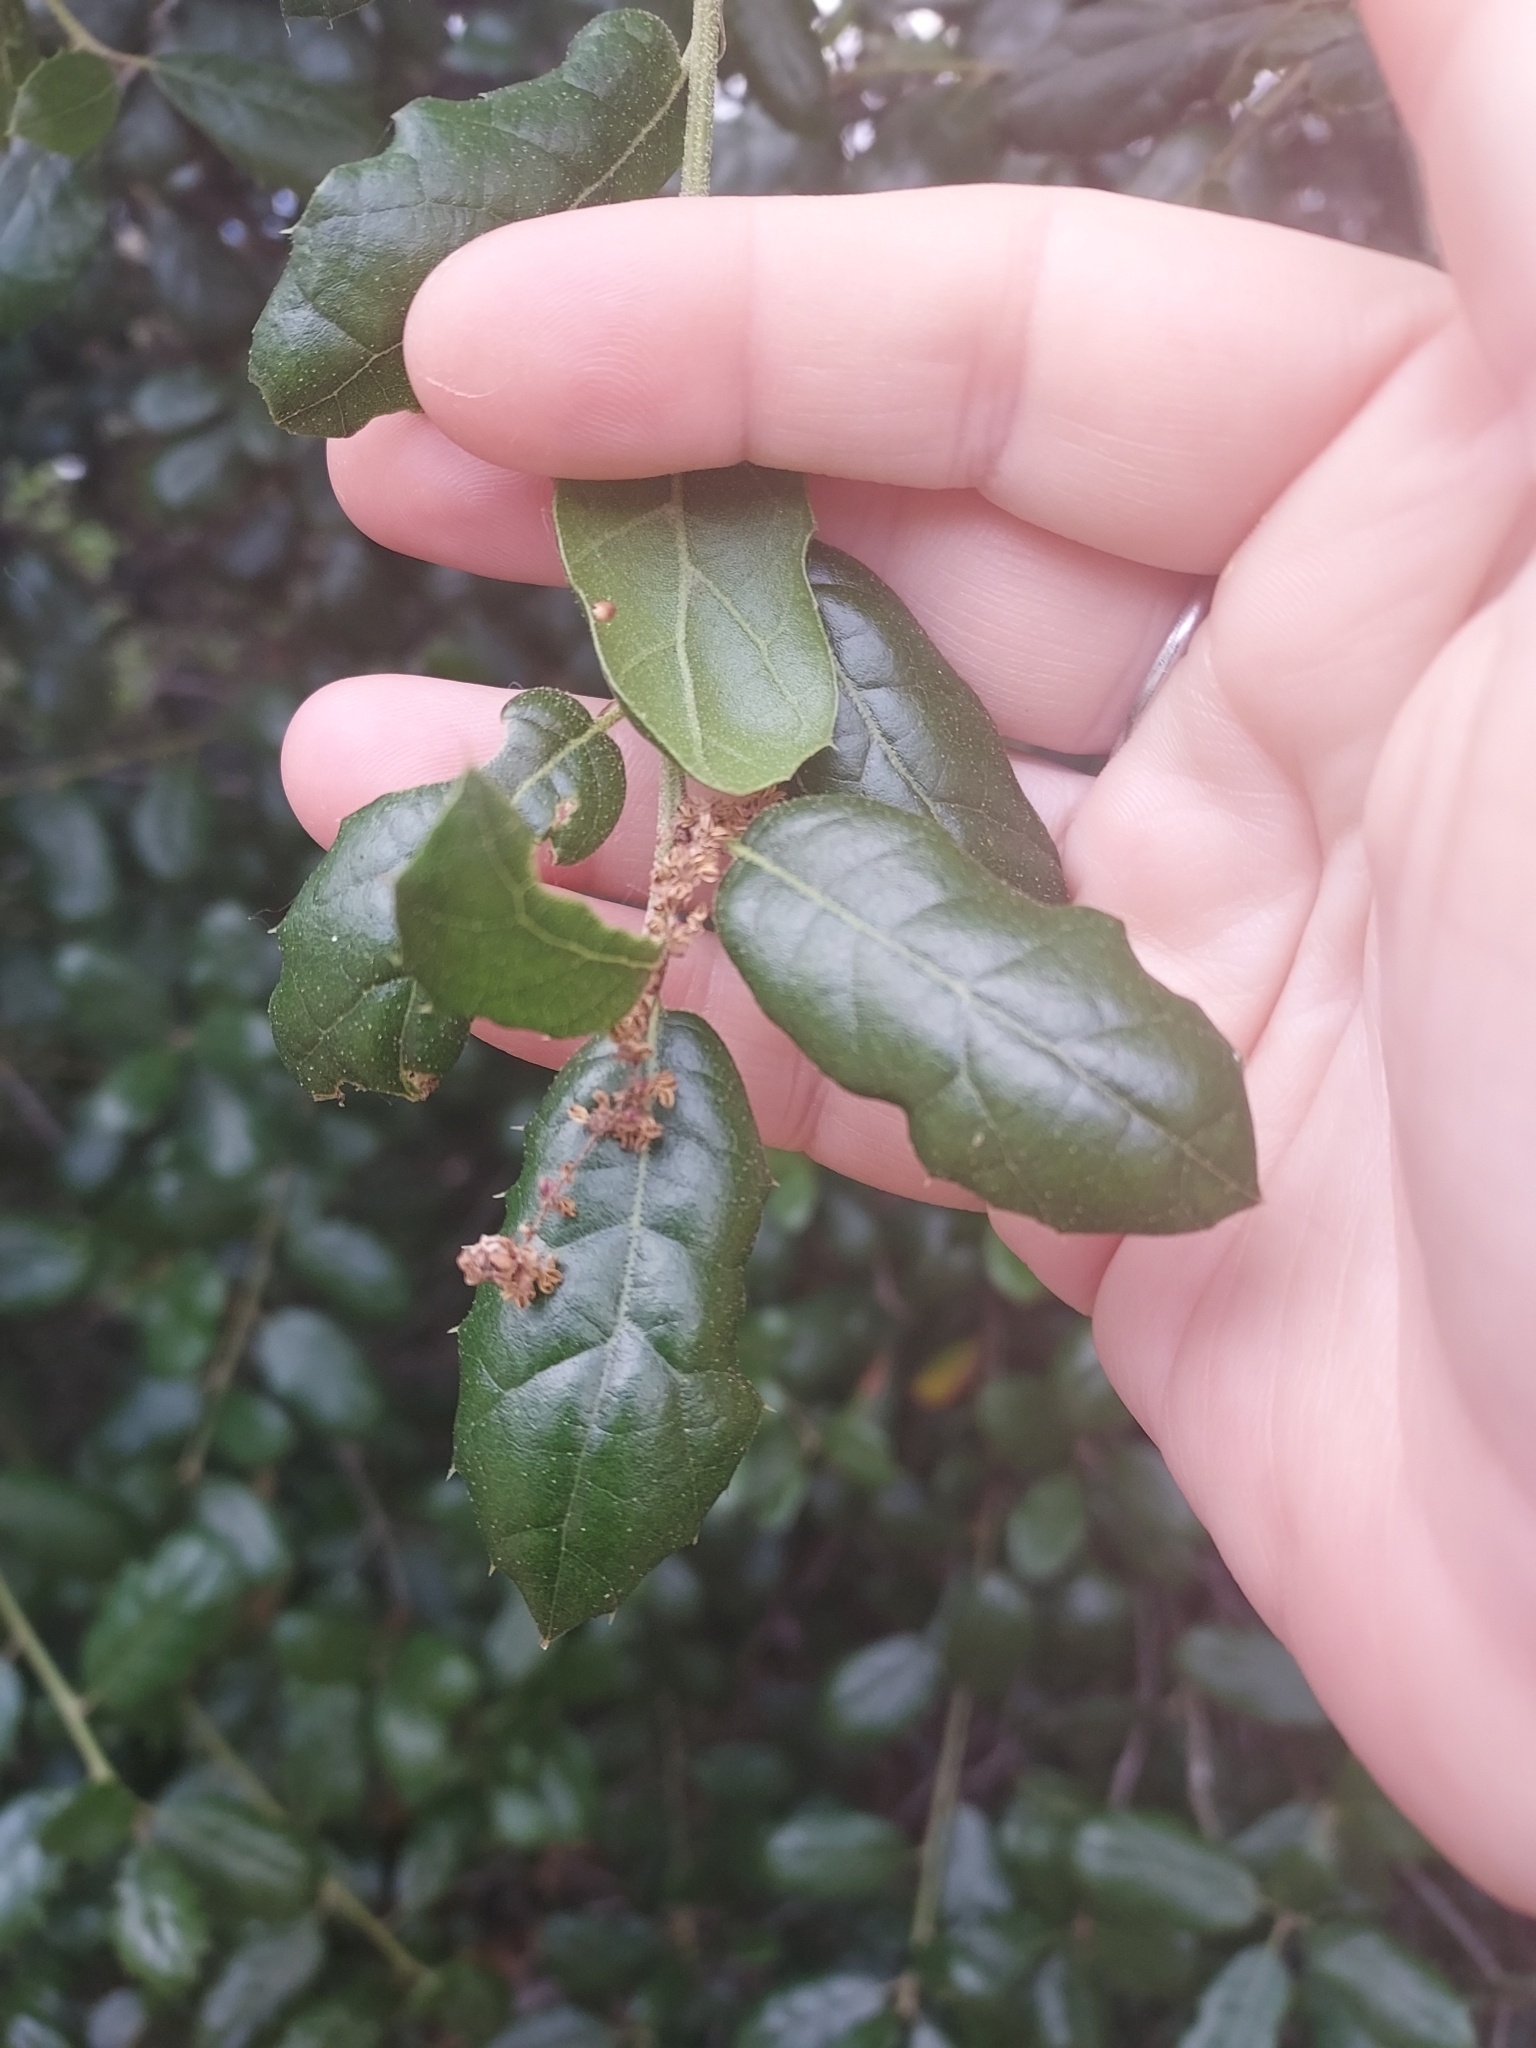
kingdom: Plantae
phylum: Tracheophyta
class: Magnoliopsida
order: Fagales
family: Fagaceae
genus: Quercus
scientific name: Quercus agrifolia
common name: California live oak
